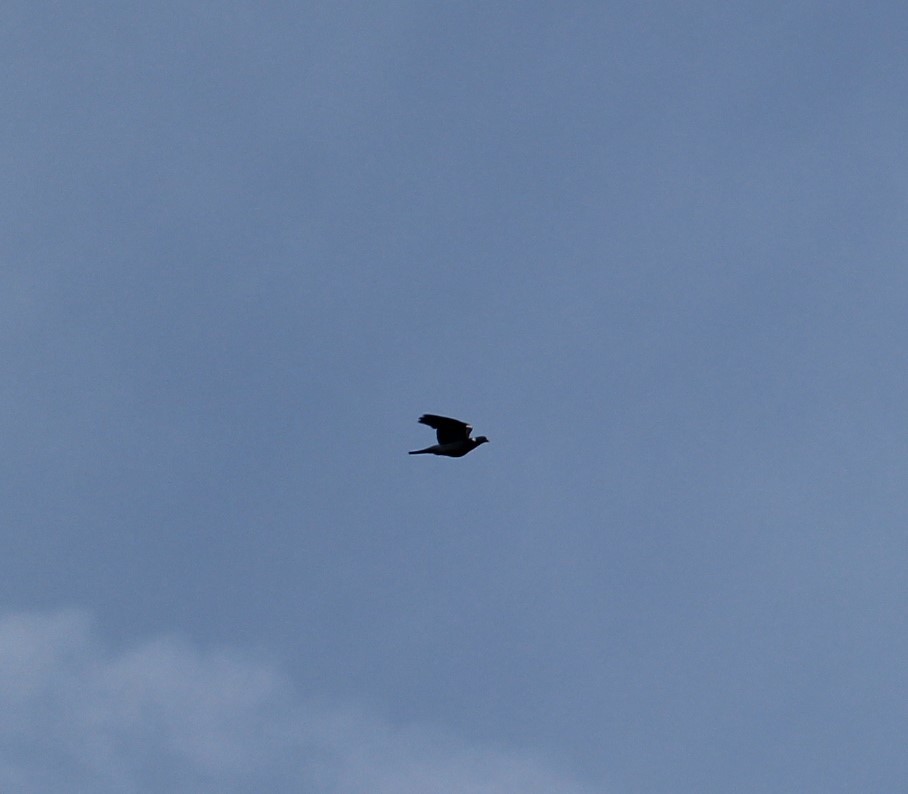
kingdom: Animalia
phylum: Chordata
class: Aves
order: Columbiformes
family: Columbidae
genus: Columba
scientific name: Columba palumbus
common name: Common wood pigeon
